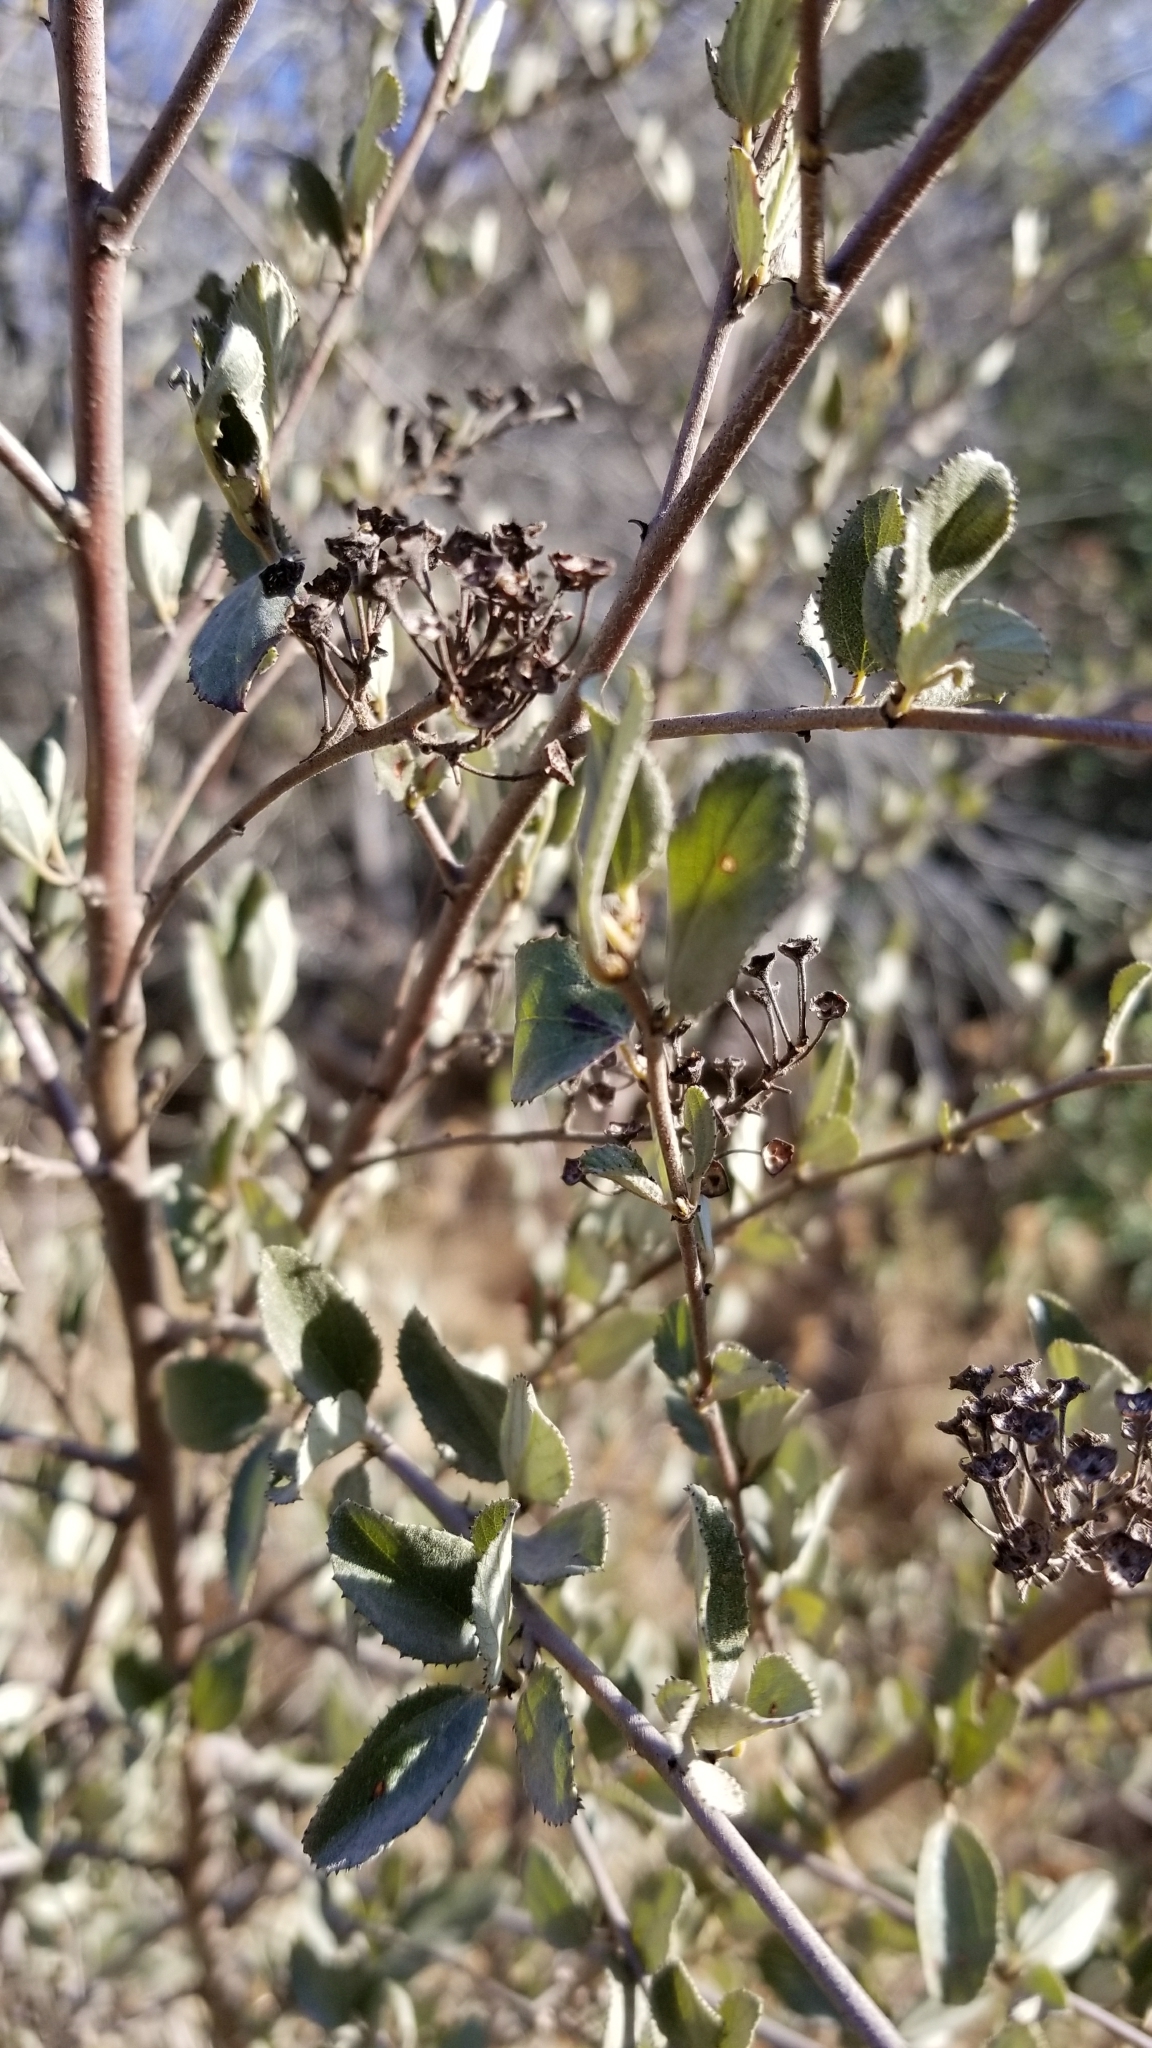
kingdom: Plantae
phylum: Tracheophyta
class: Magnoliopsida
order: Rosales
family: Rhamnaceae
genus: Ceanothus
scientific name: Ceanothus tomentosus
